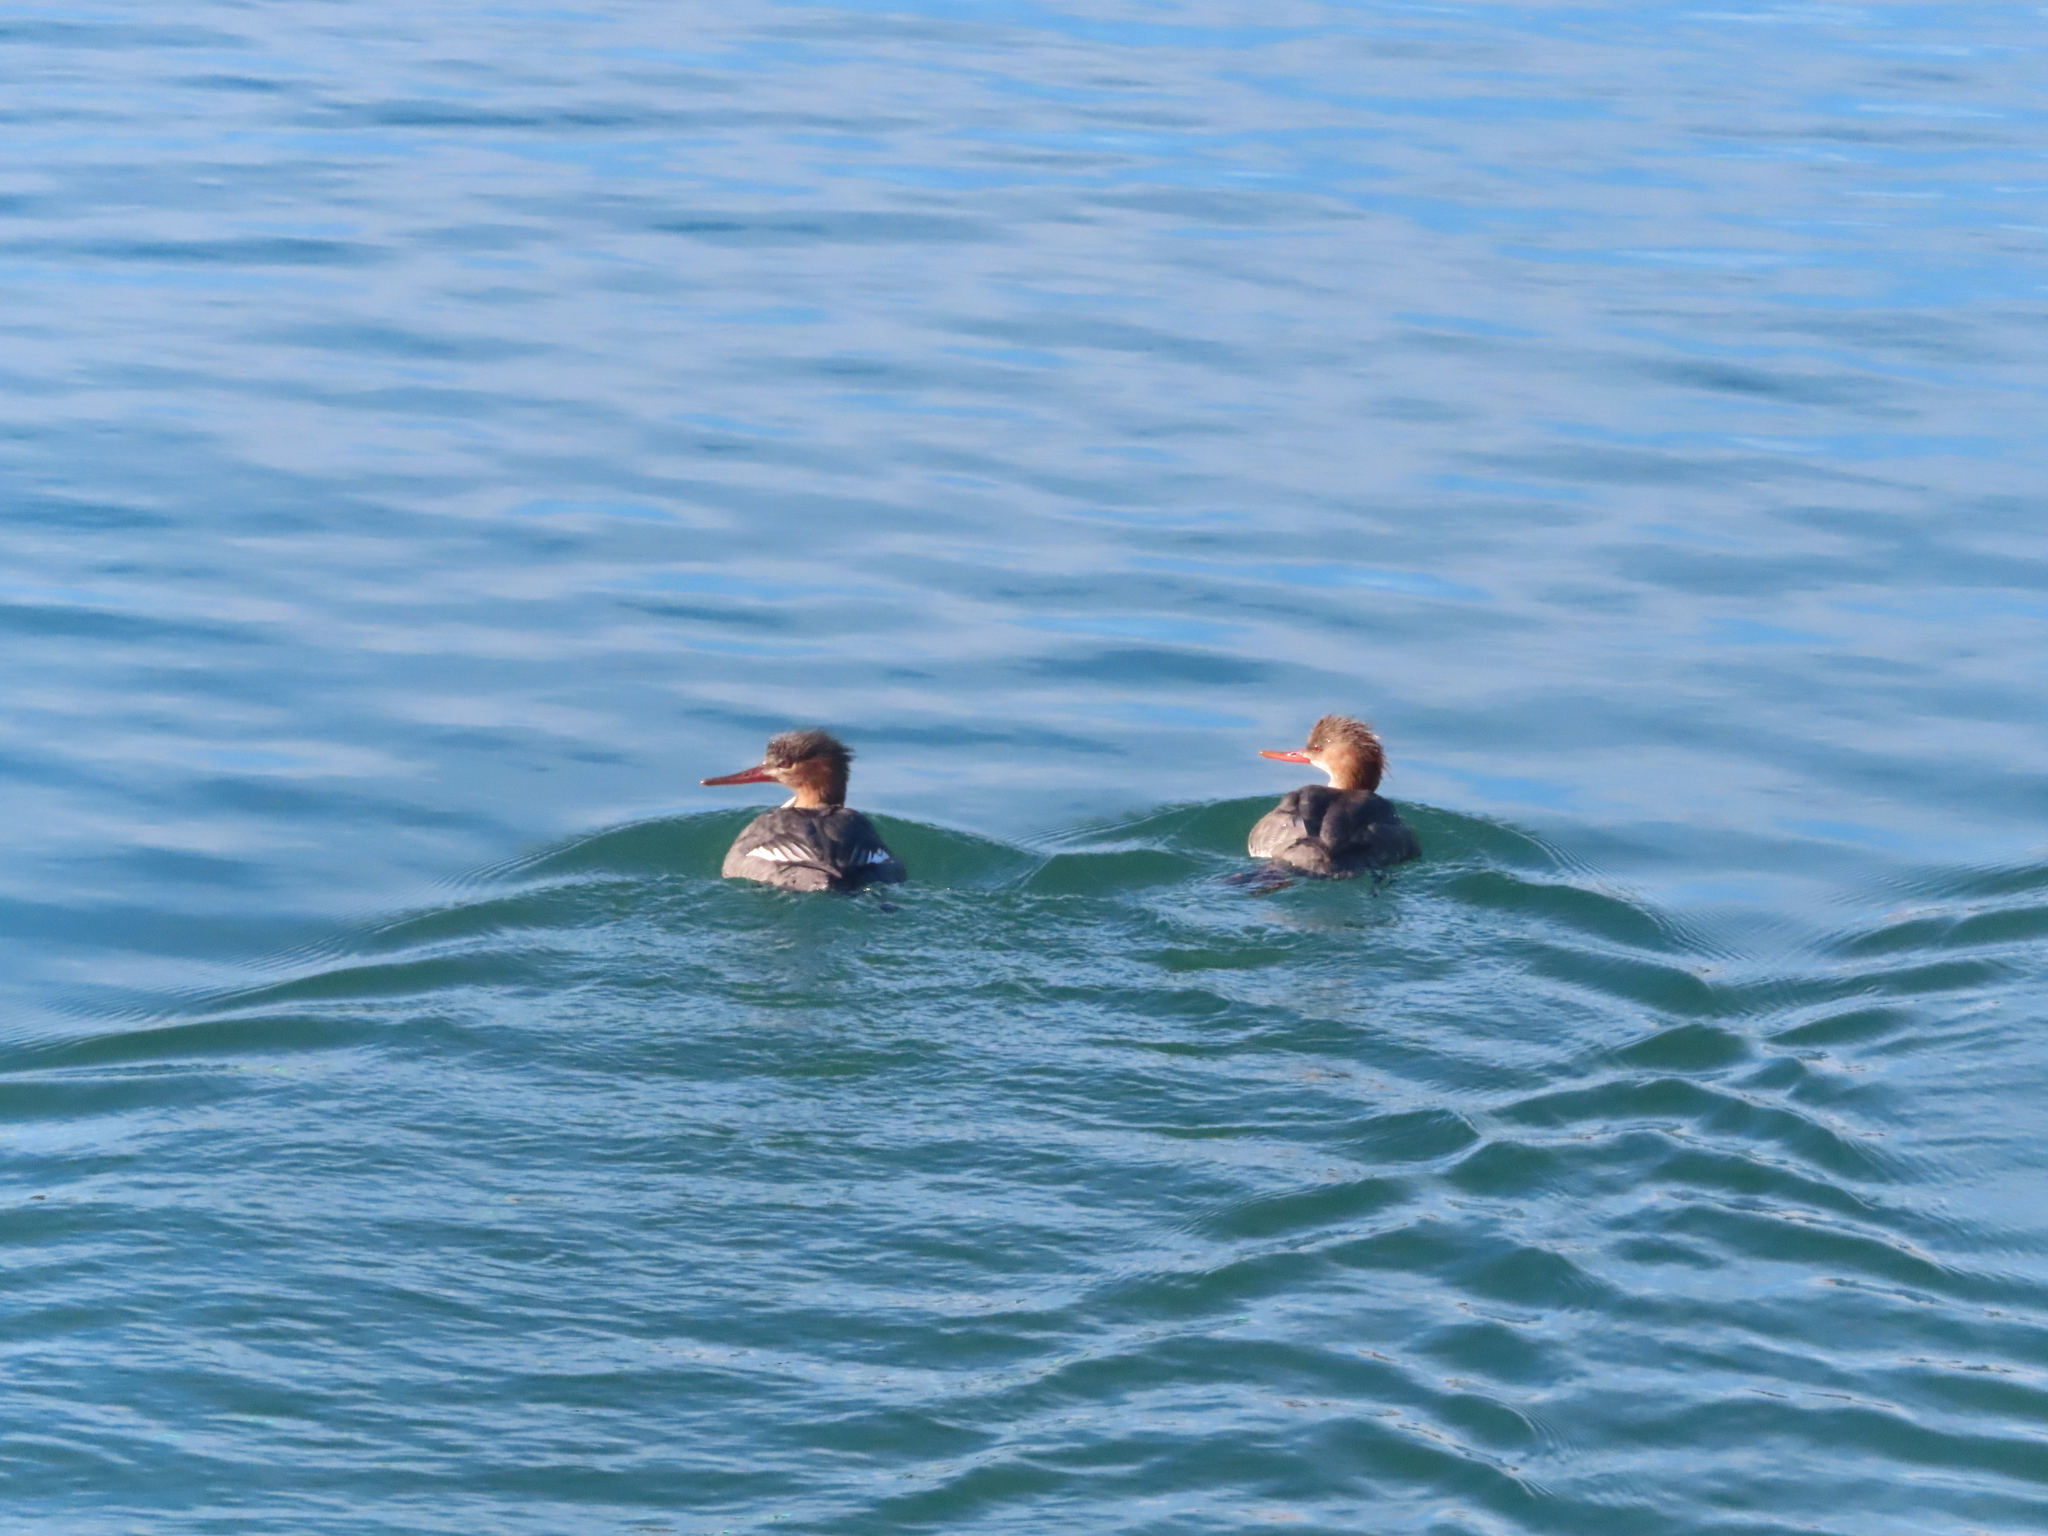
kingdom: Animalia
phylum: Chordata
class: Aves
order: Anseriformes
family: Anatidae
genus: Mergus
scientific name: Mergus serrator
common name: Red-breasted merganser
